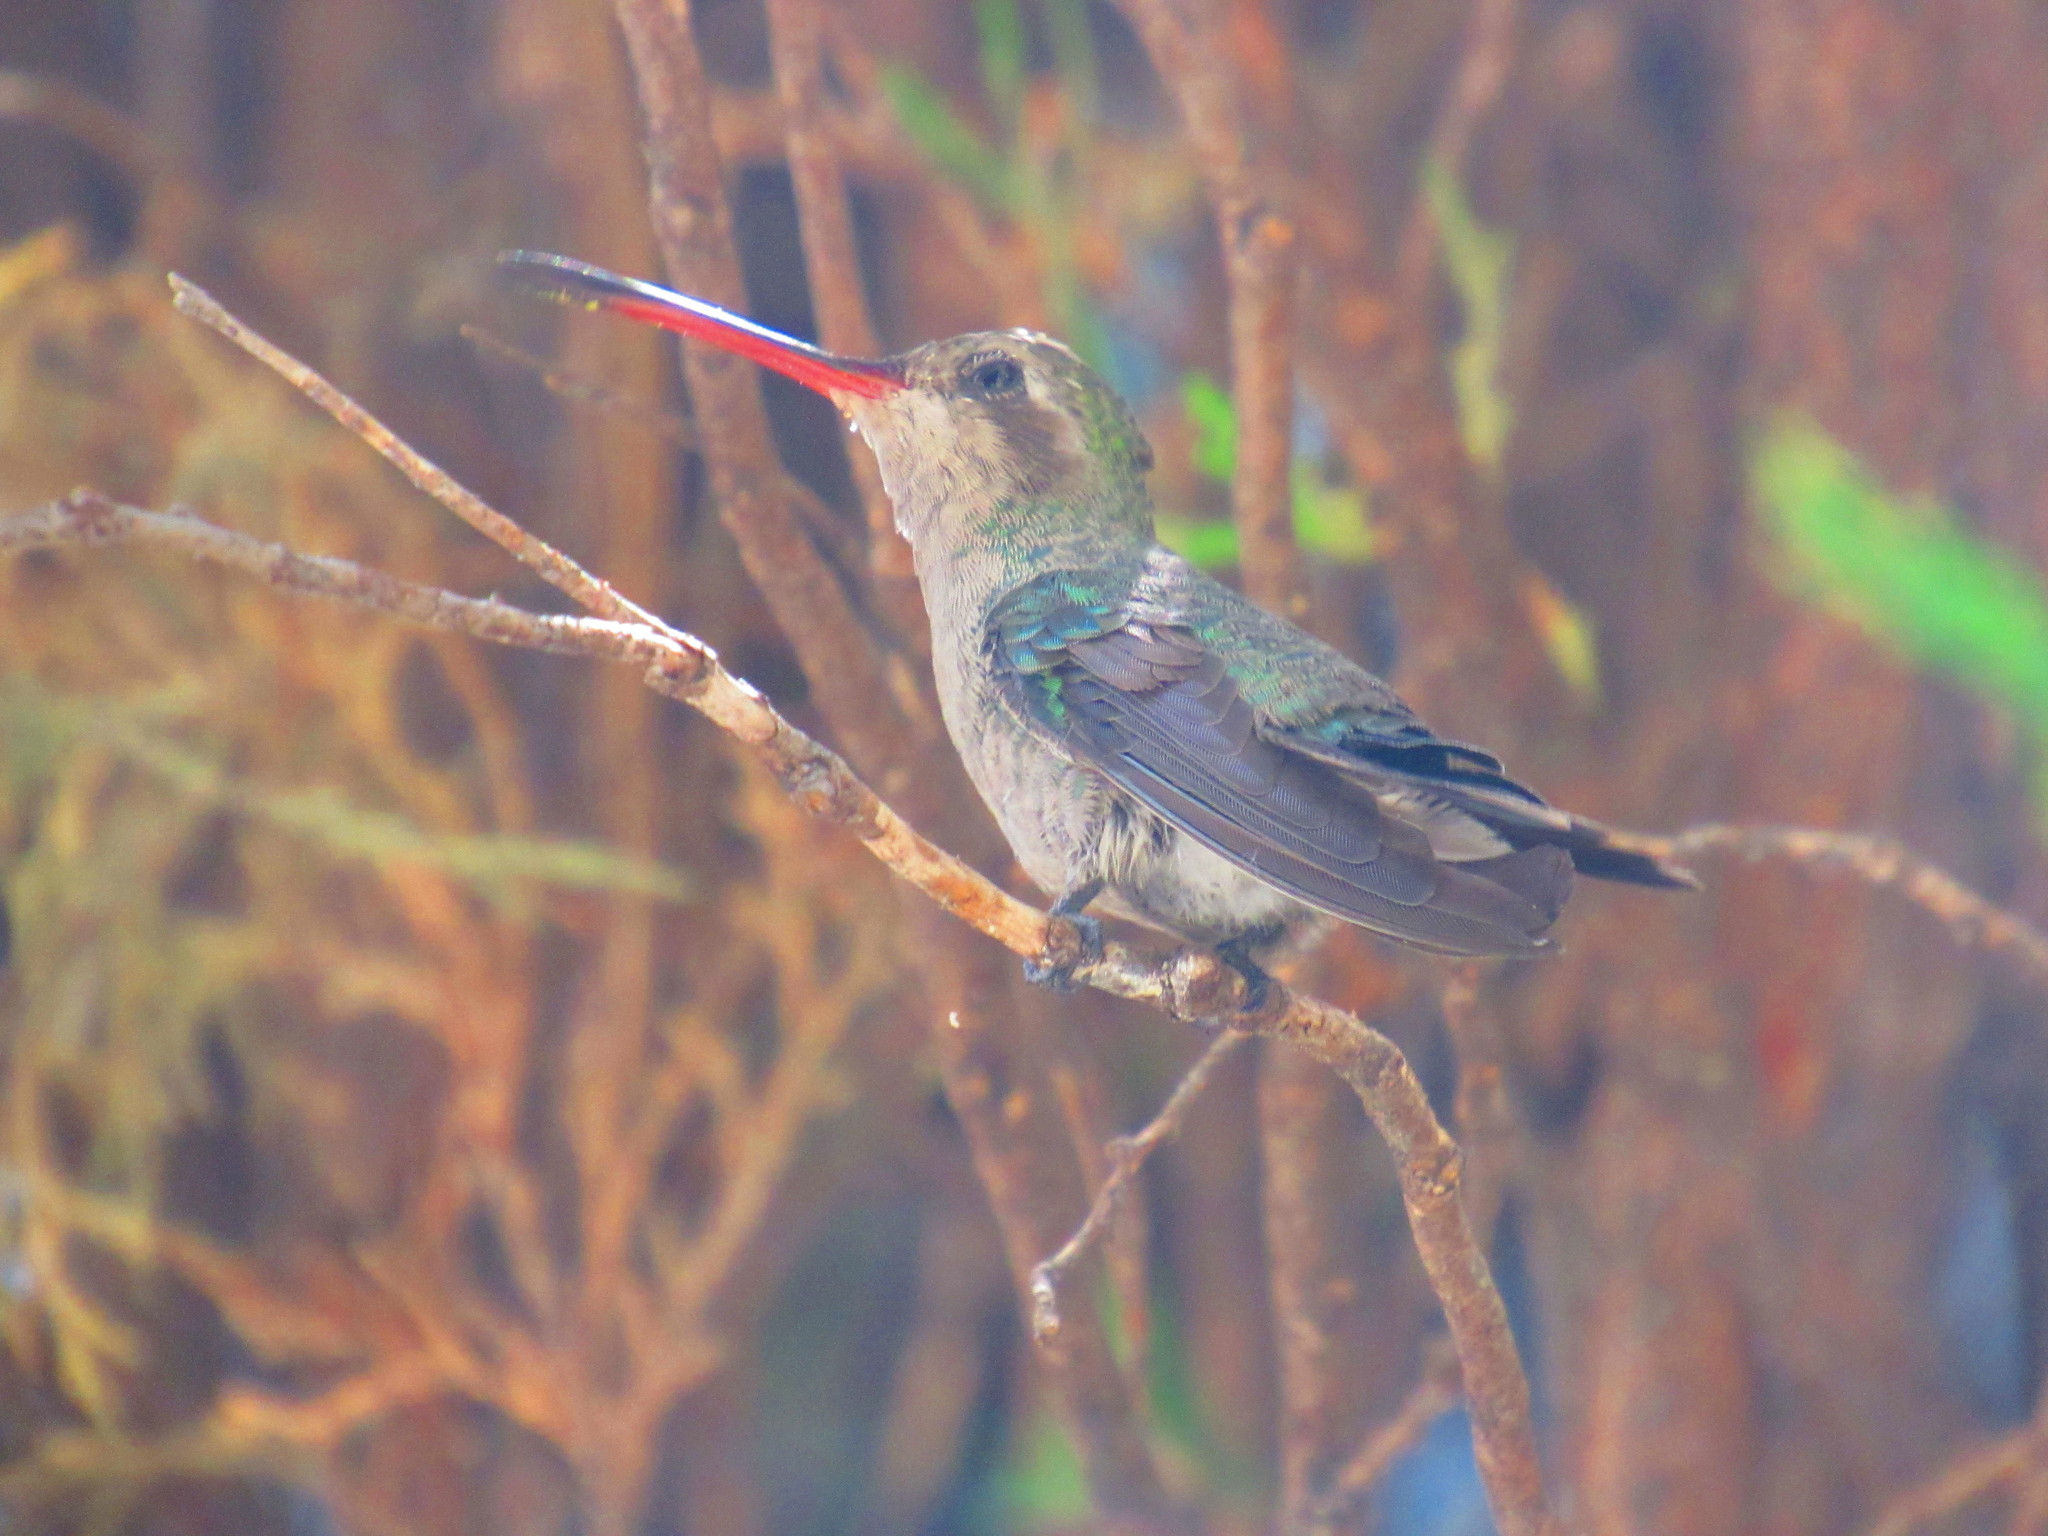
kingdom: Animalia
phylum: Chordata
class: Aves
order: Apodiformes
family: Trochilidae
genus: Cynanthus
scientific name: Cynanthus latirostris
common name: Broad-billed hummingbird
